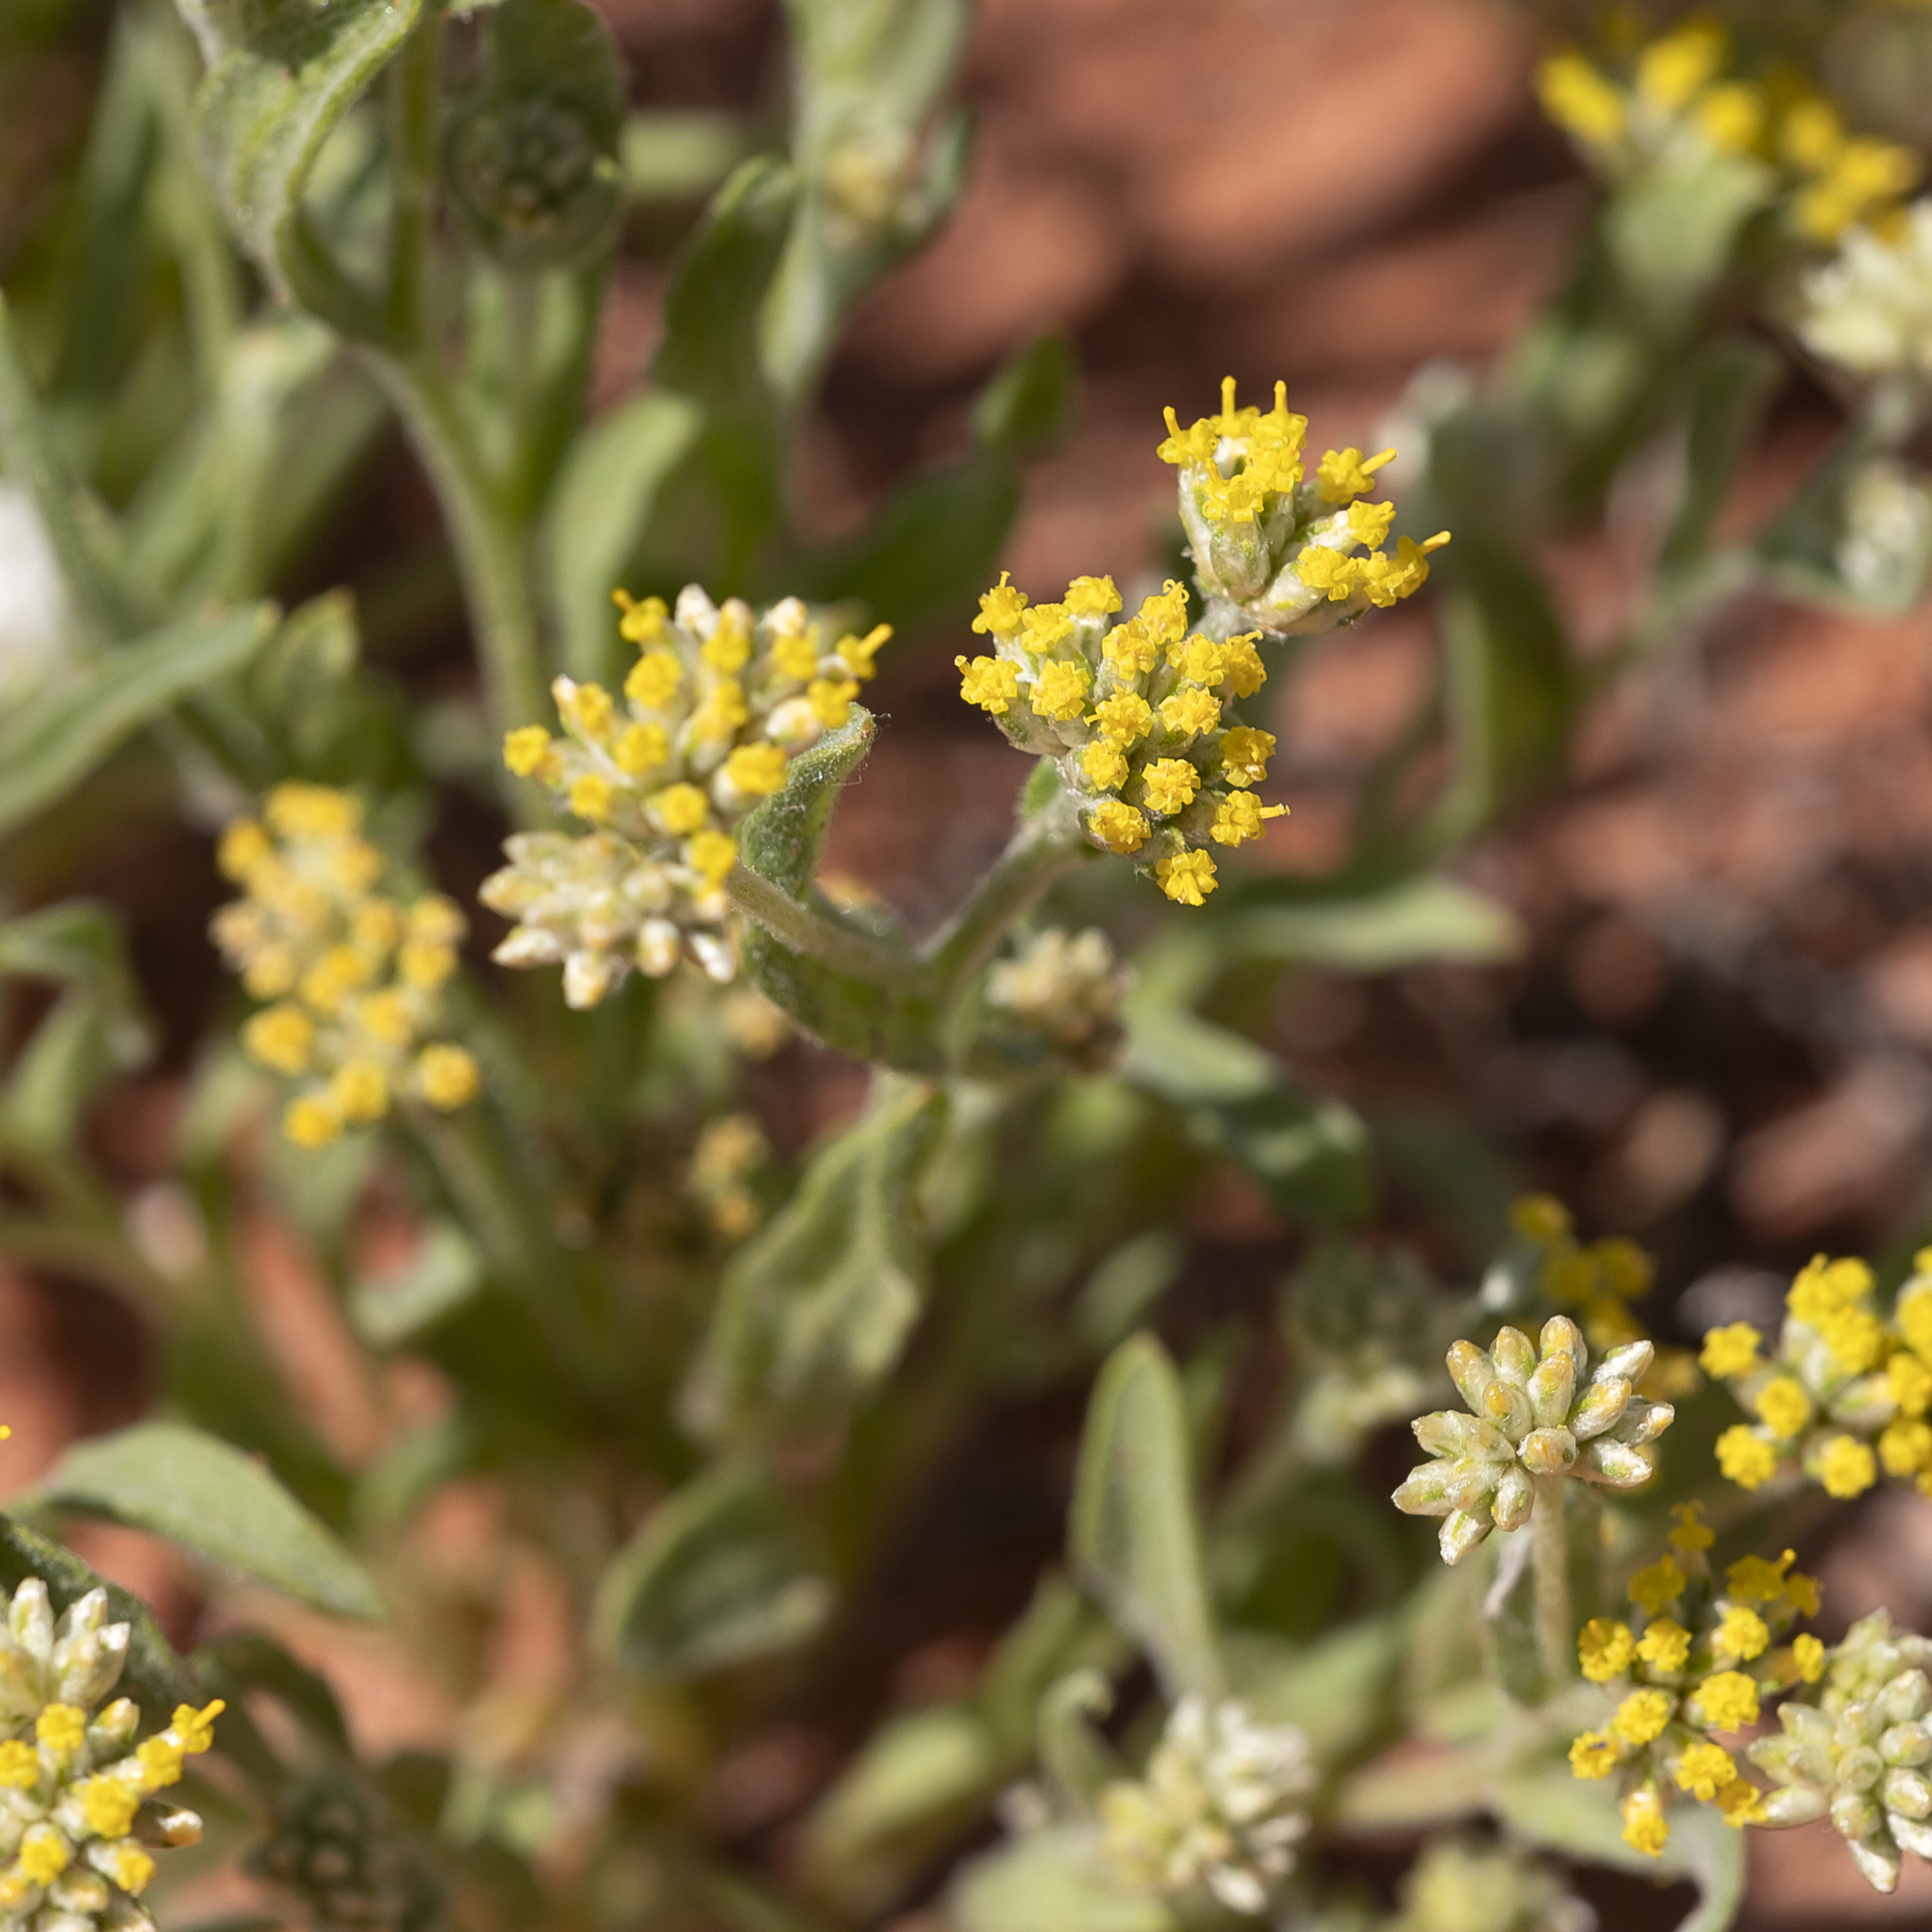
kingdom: Plantae
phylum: Tracheophyta
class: Magnoliopsida
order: Asterales
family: Asteraceae
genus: Rhodanthe
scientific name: Rhodanthe moschata
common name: Musk sunray
